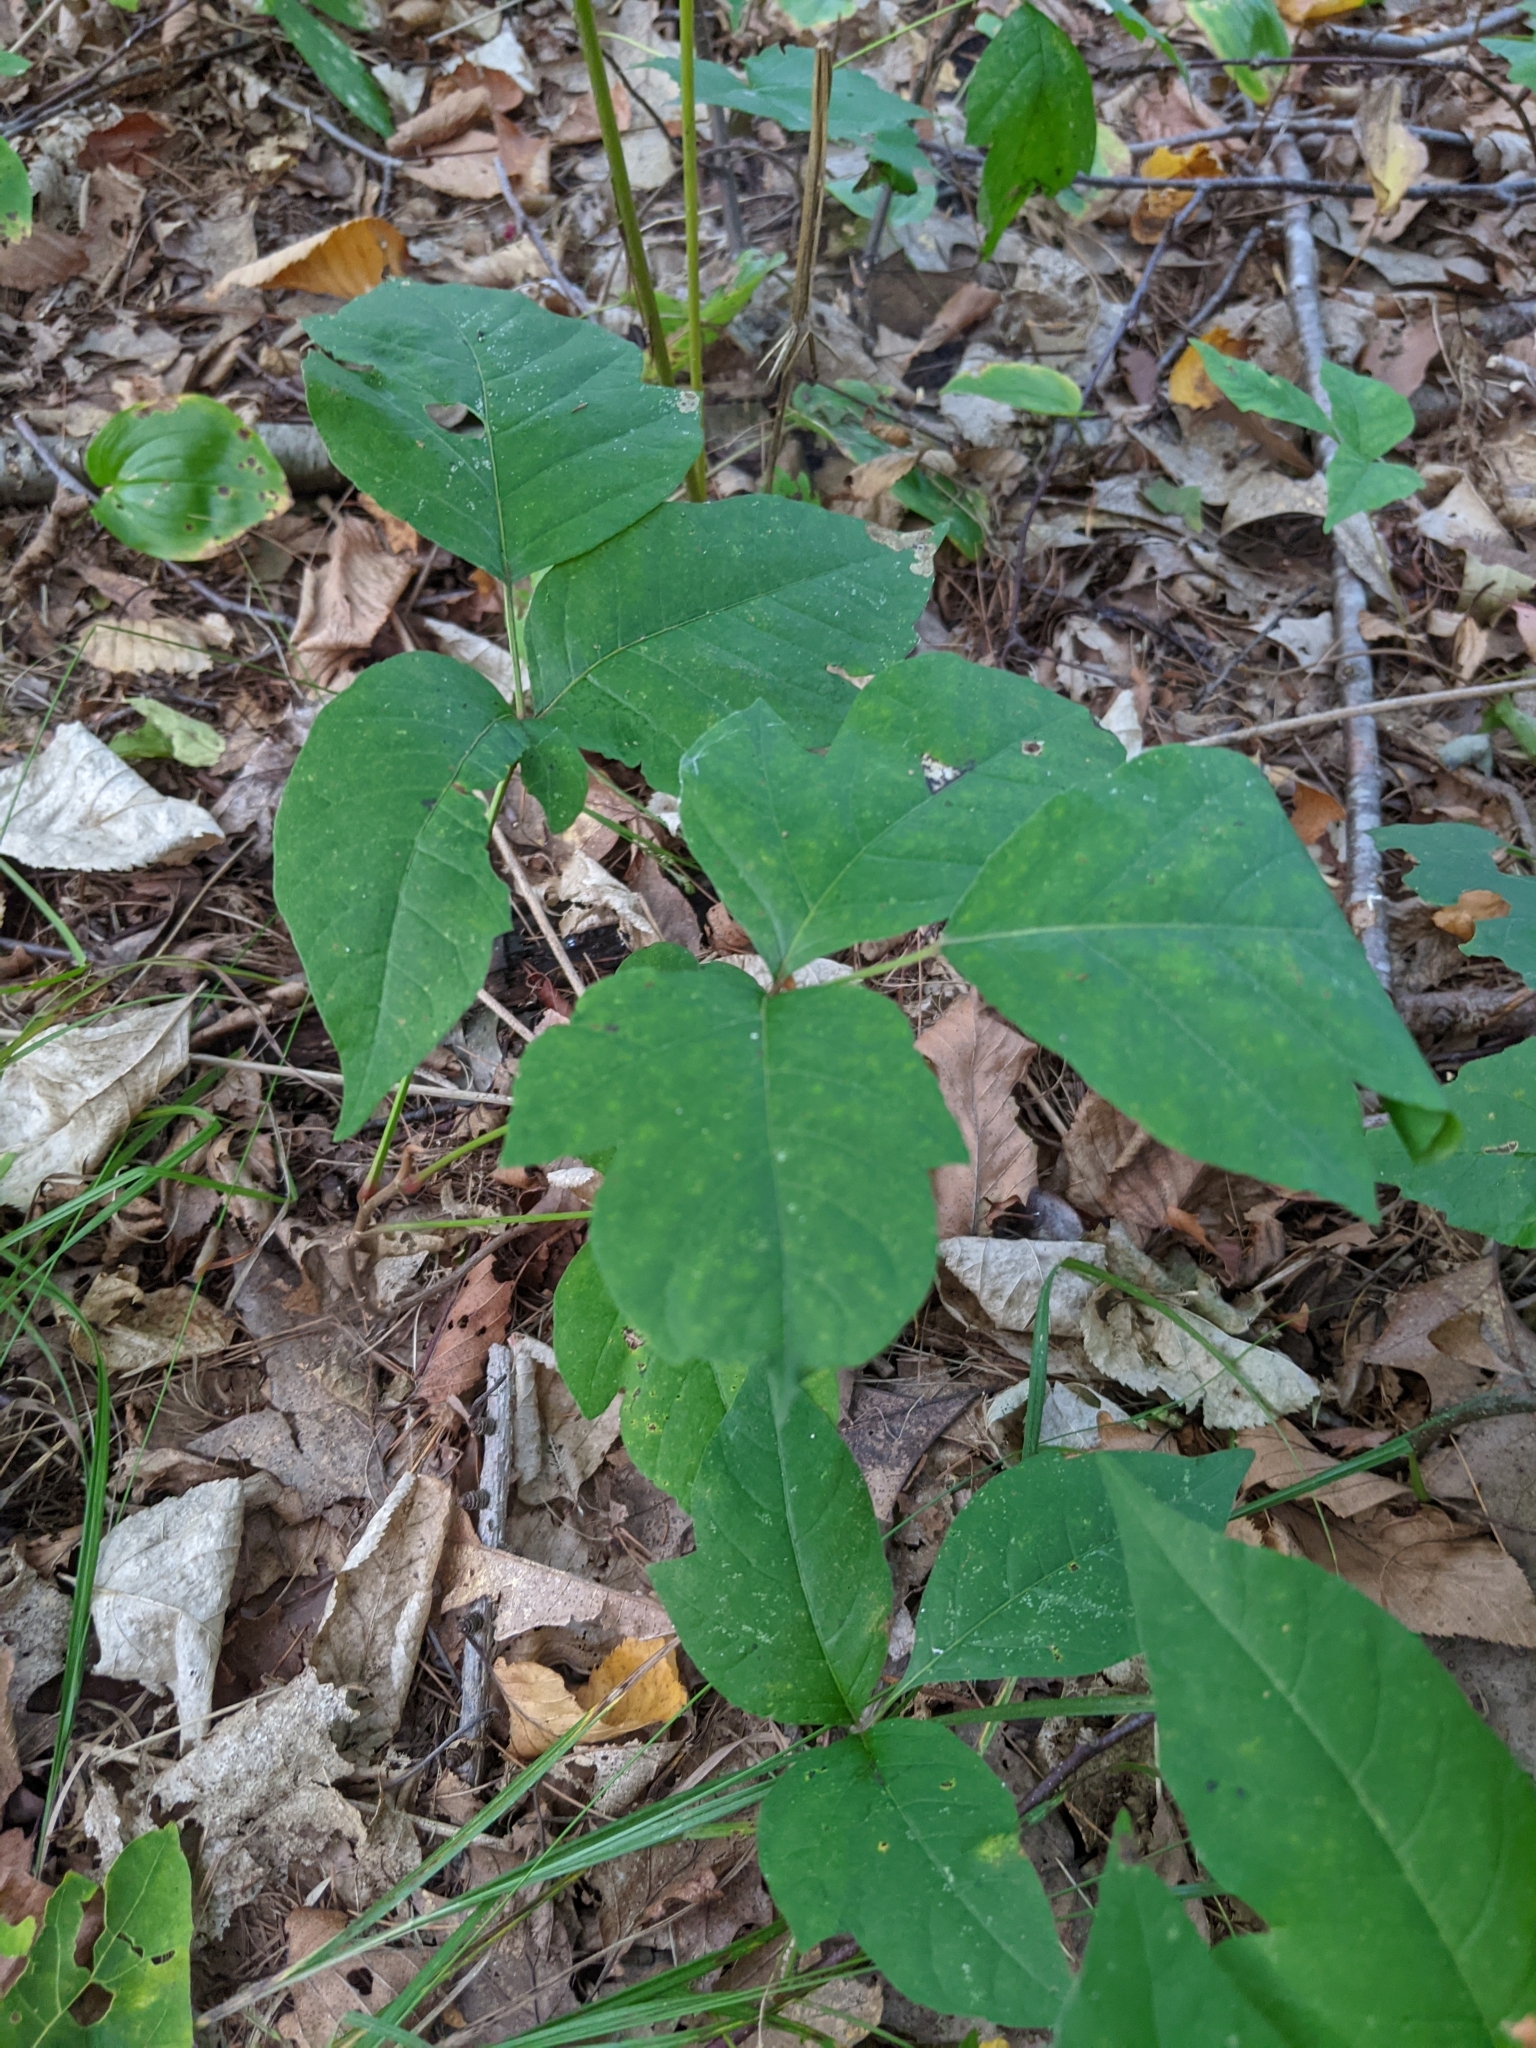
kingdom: Plantae
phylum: Tracheophyta
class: Magnoliopsida
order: Sapindales
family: Anacardiaceae
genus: Toxicodendron
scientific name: Toxicodendron radicans
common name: Poison ivy
